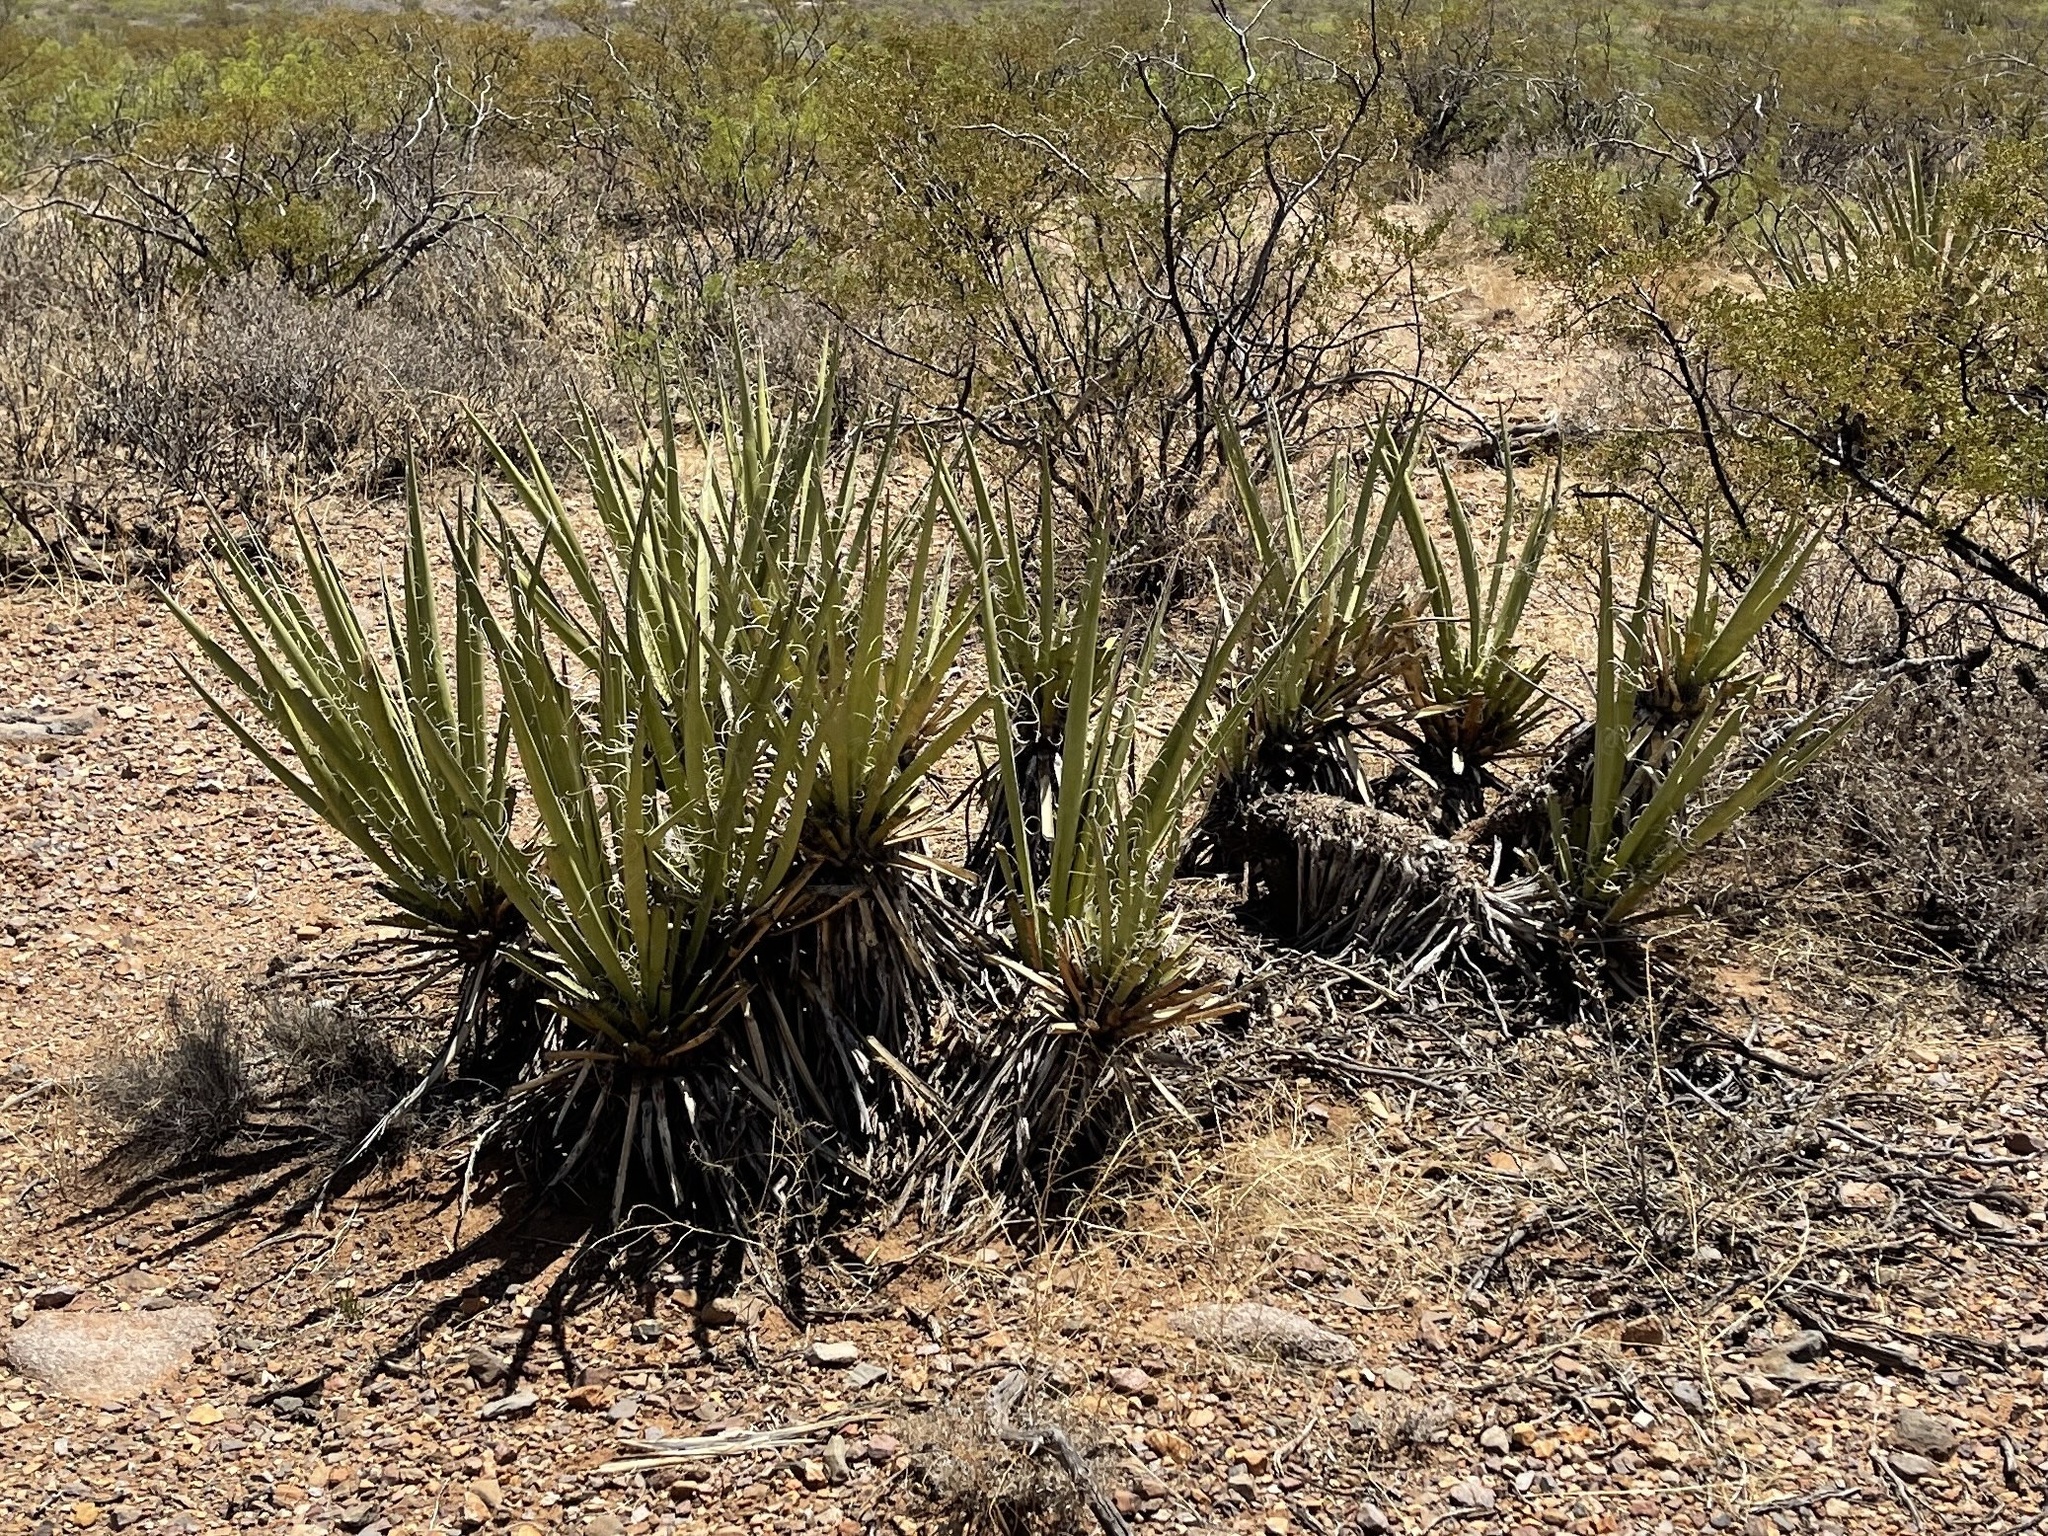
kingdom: Plantae
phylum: Tracheophyta
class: Liliopsida
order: Asparagales
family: Asparagaceae
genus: Yucca
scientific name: Yucca baccata
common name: Banana yucca
